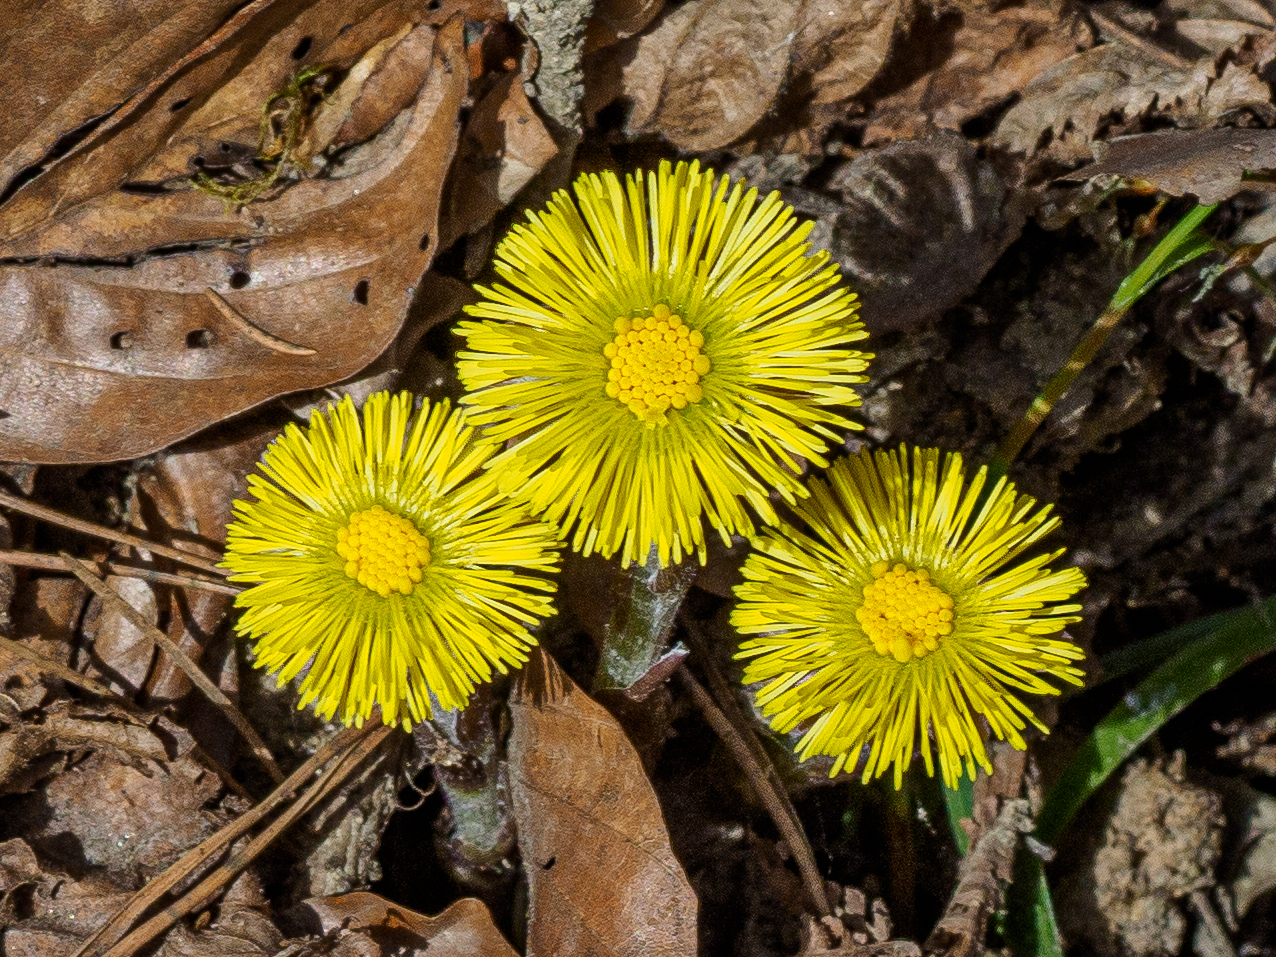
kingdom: Plantae
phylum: Tracheophyta
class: Magnoliopsida
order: Asterales
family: Asteraceae
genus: Tussilago
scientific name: Tussilago farfara
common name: Coltsfoot
